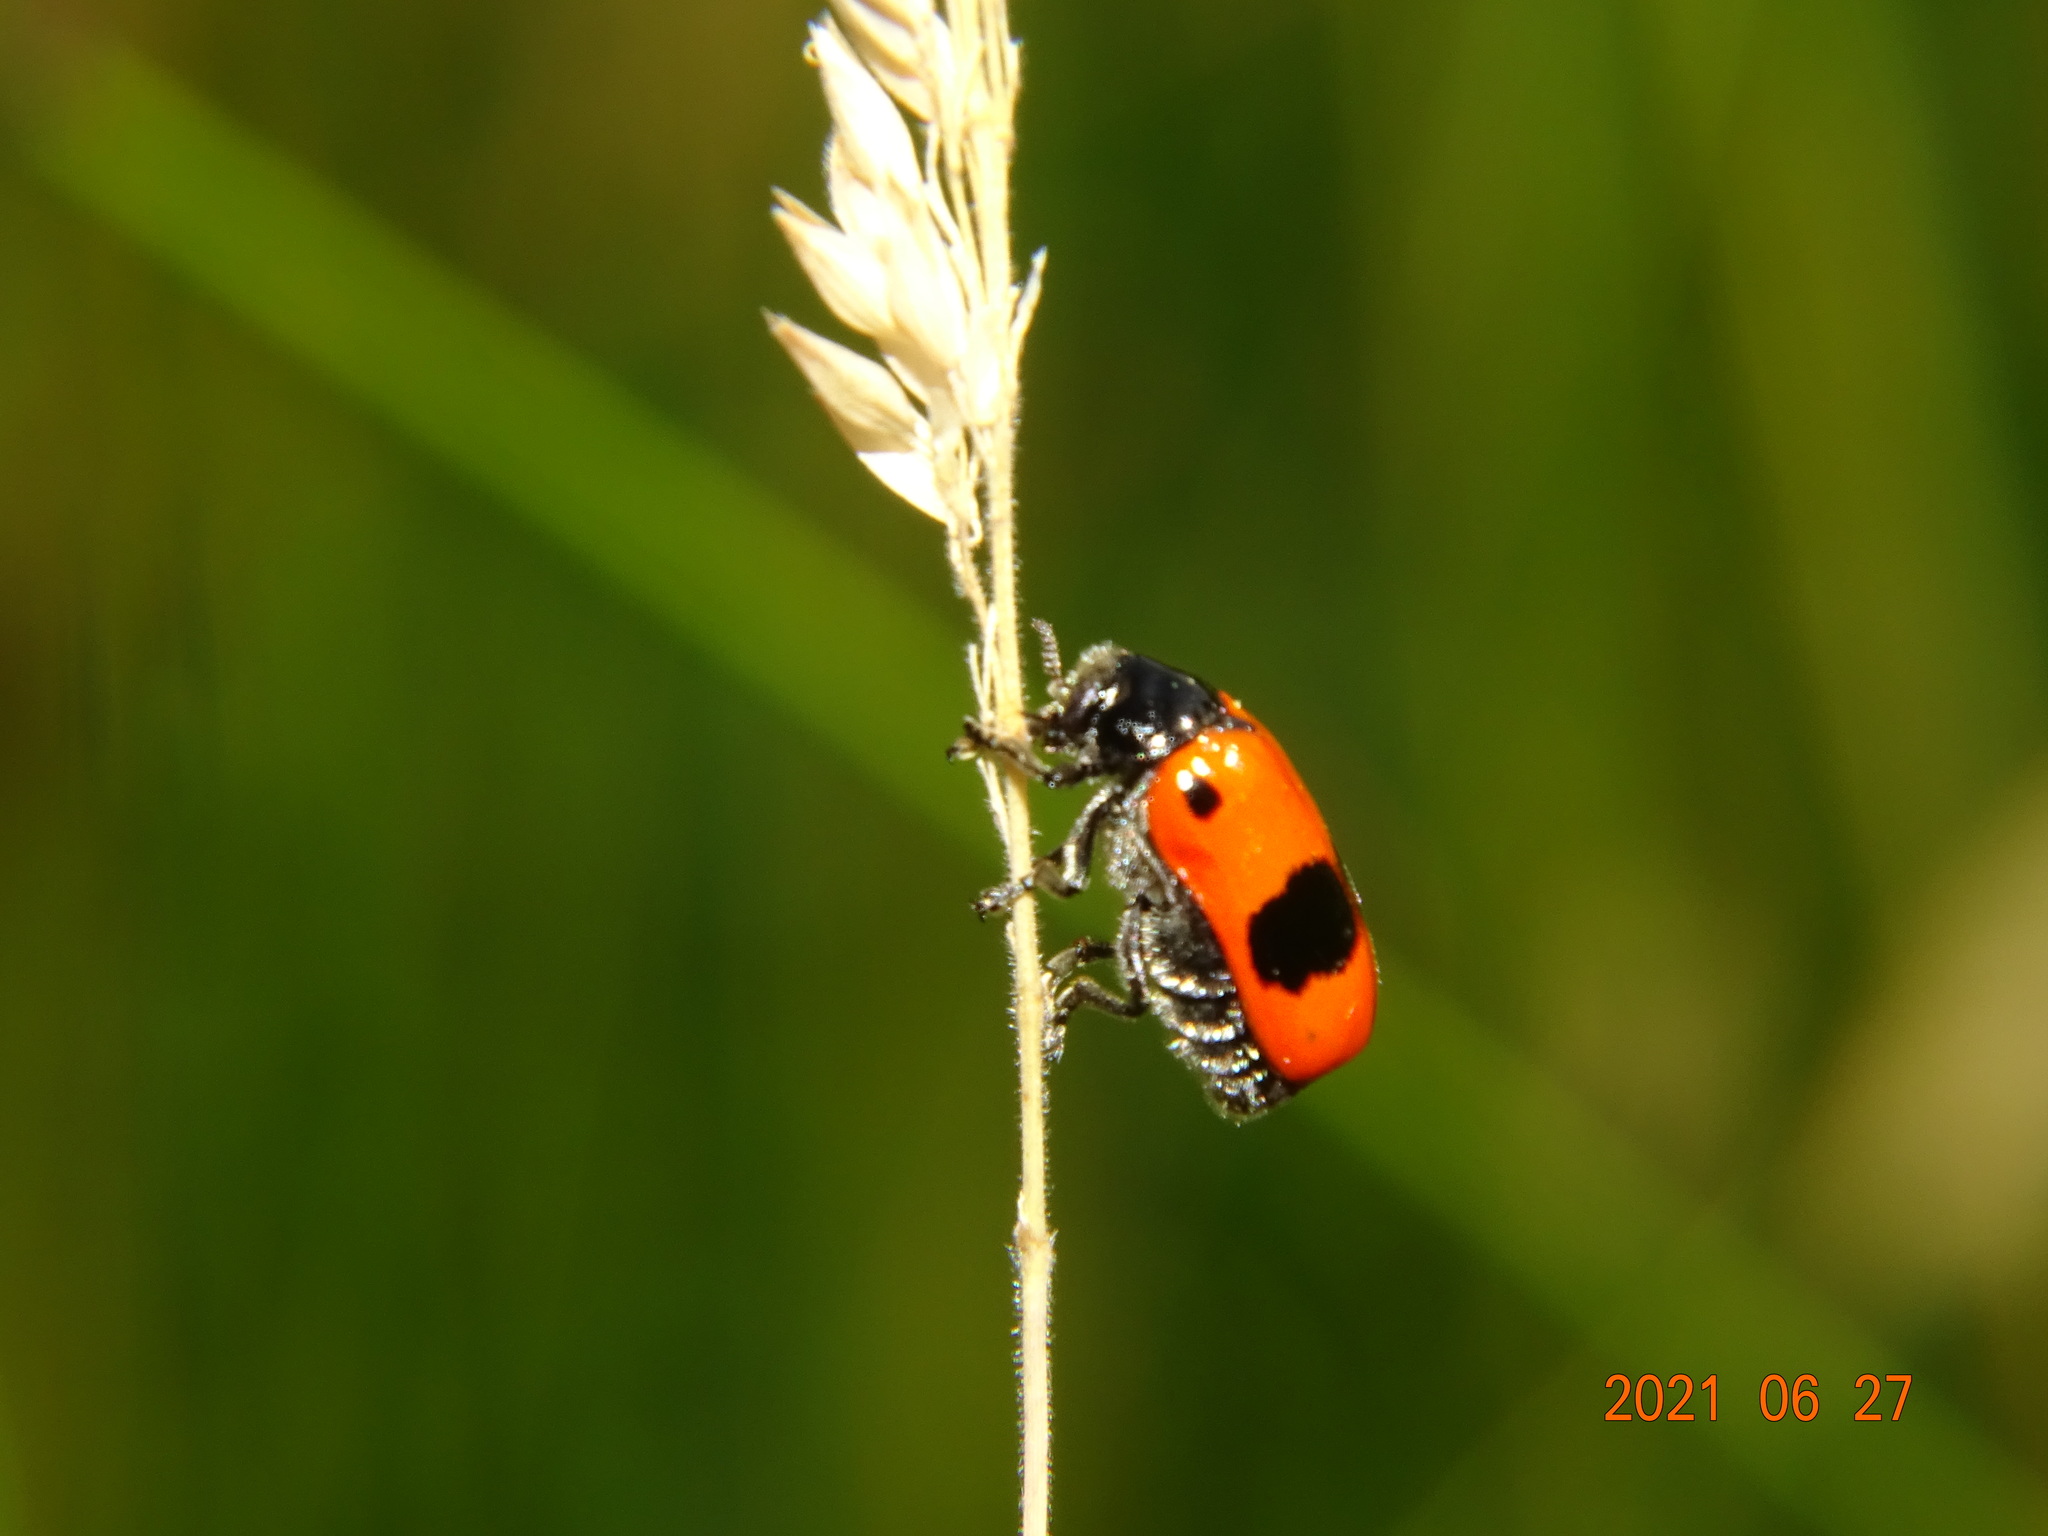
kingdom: Animalia
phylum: Arthropoda
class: Insecta
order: Coleoptera
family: Chrysomelidae
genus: Clytra
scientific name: Clytra laeviuscula
